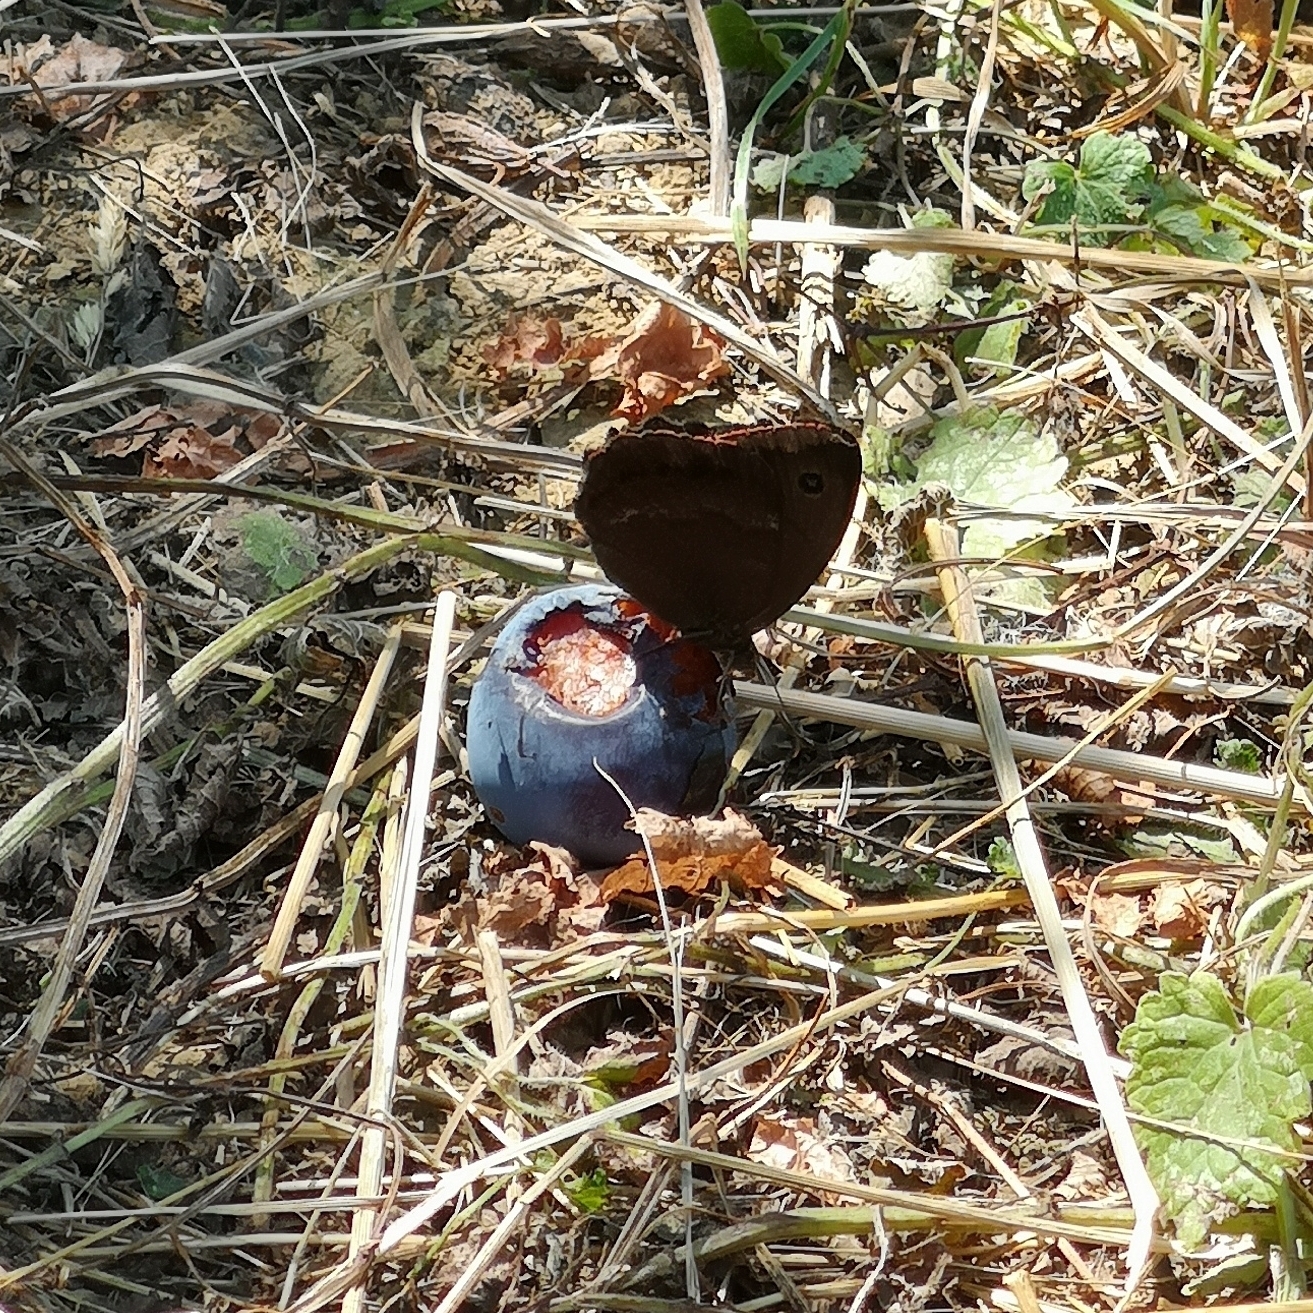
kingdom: Animalia
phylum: Arthropoda
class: Insecta
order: Lepidoptera
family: Nymphalidae
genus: Minois
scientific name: Minois dryas
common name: Dryad
